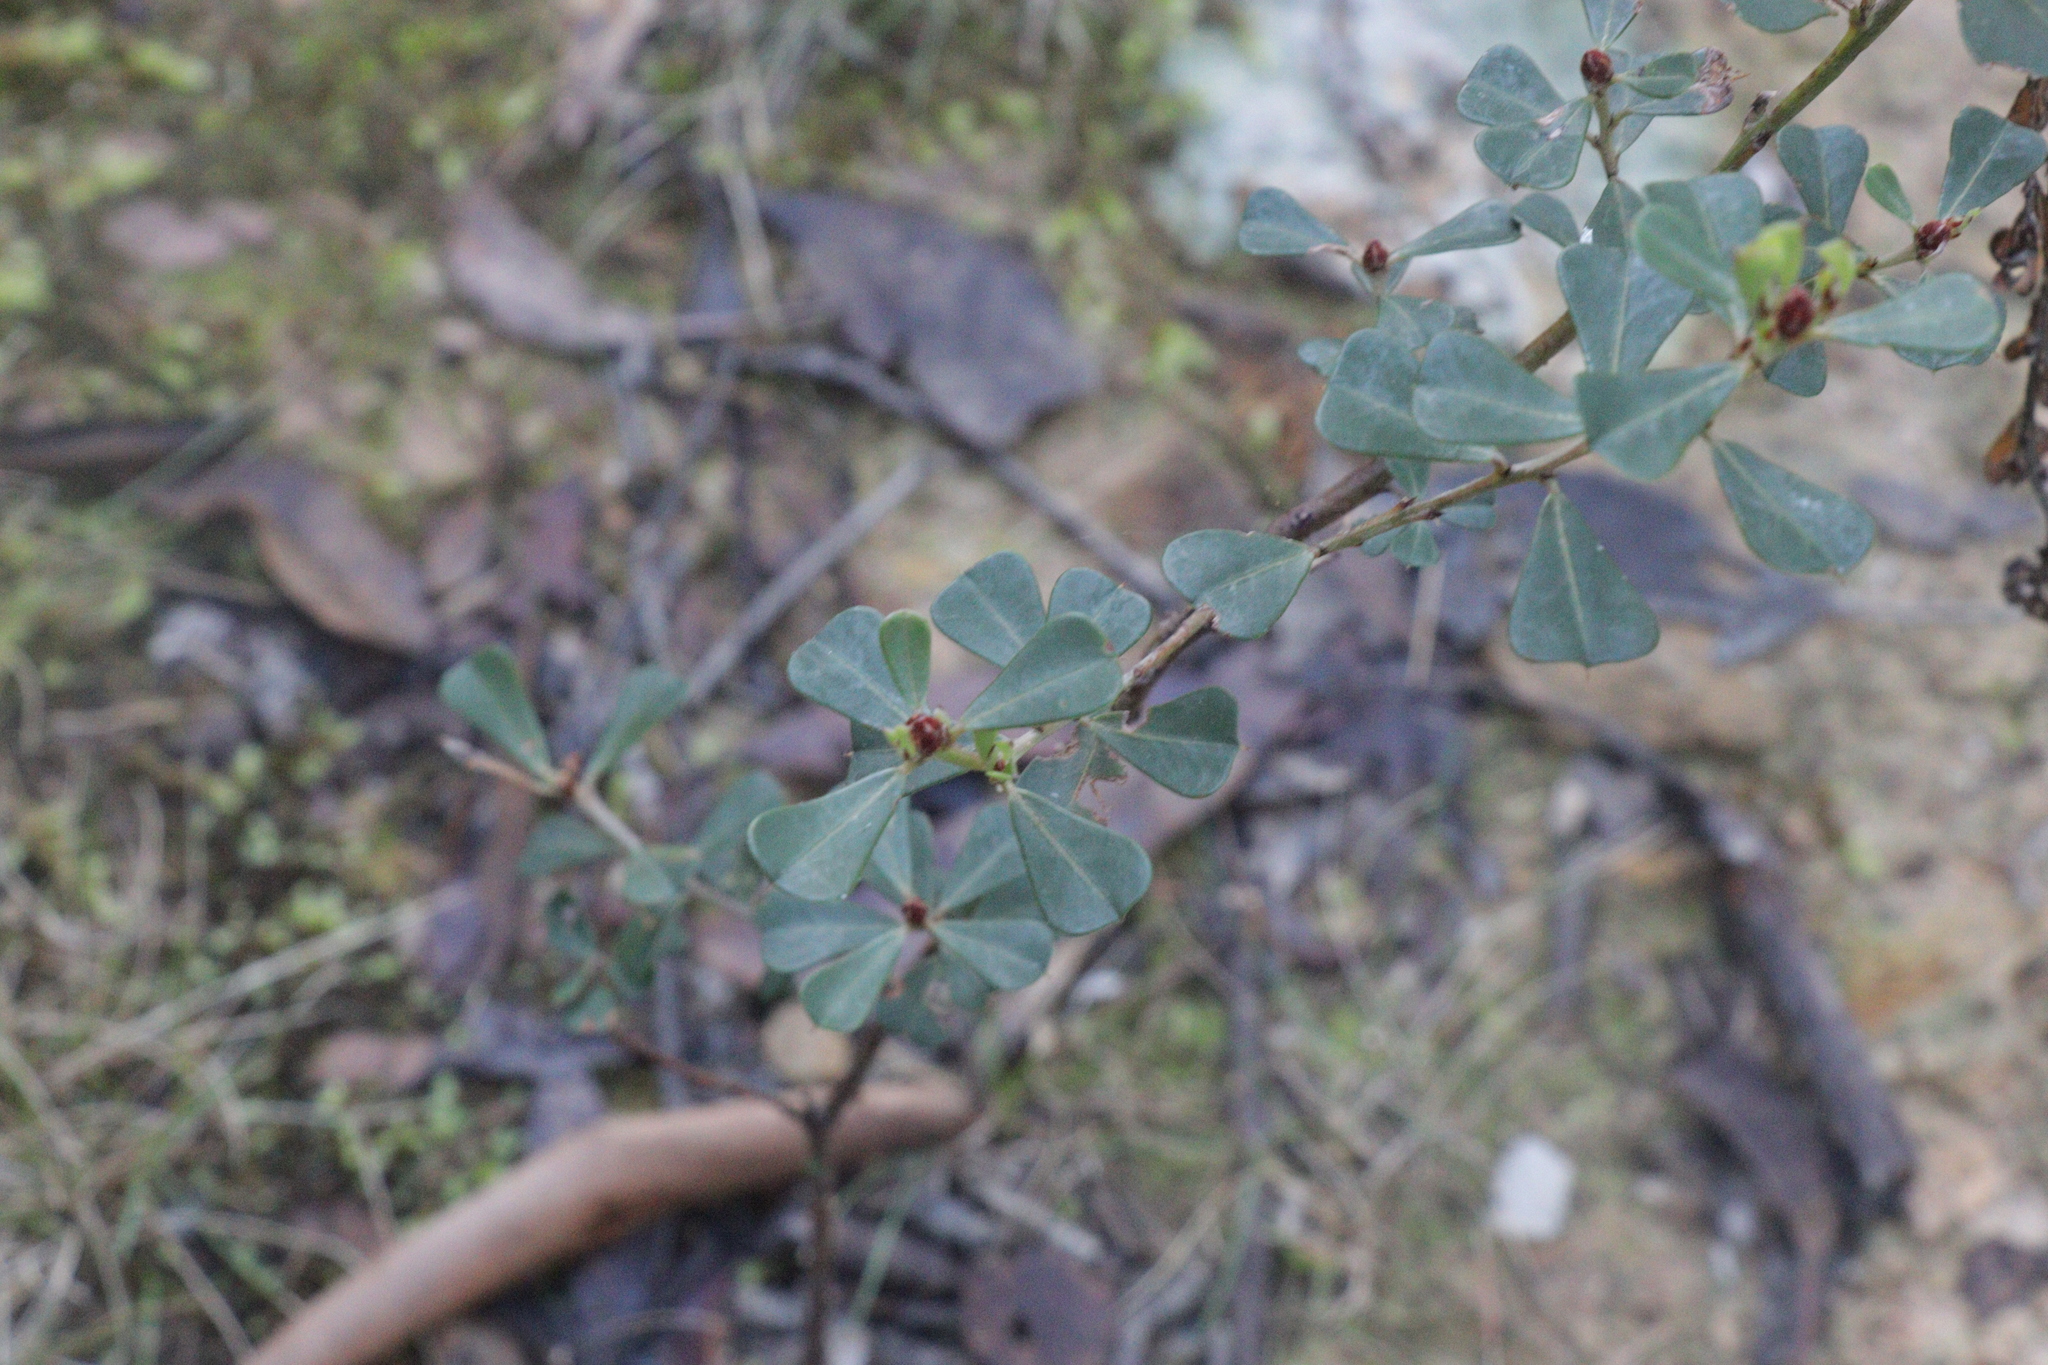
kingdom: Plantae
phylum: Tracheophyta
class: Magnoliopsida
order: Fabales
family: Fabaceae
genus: Pultenaea
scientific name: Pultenaea daphnoides
